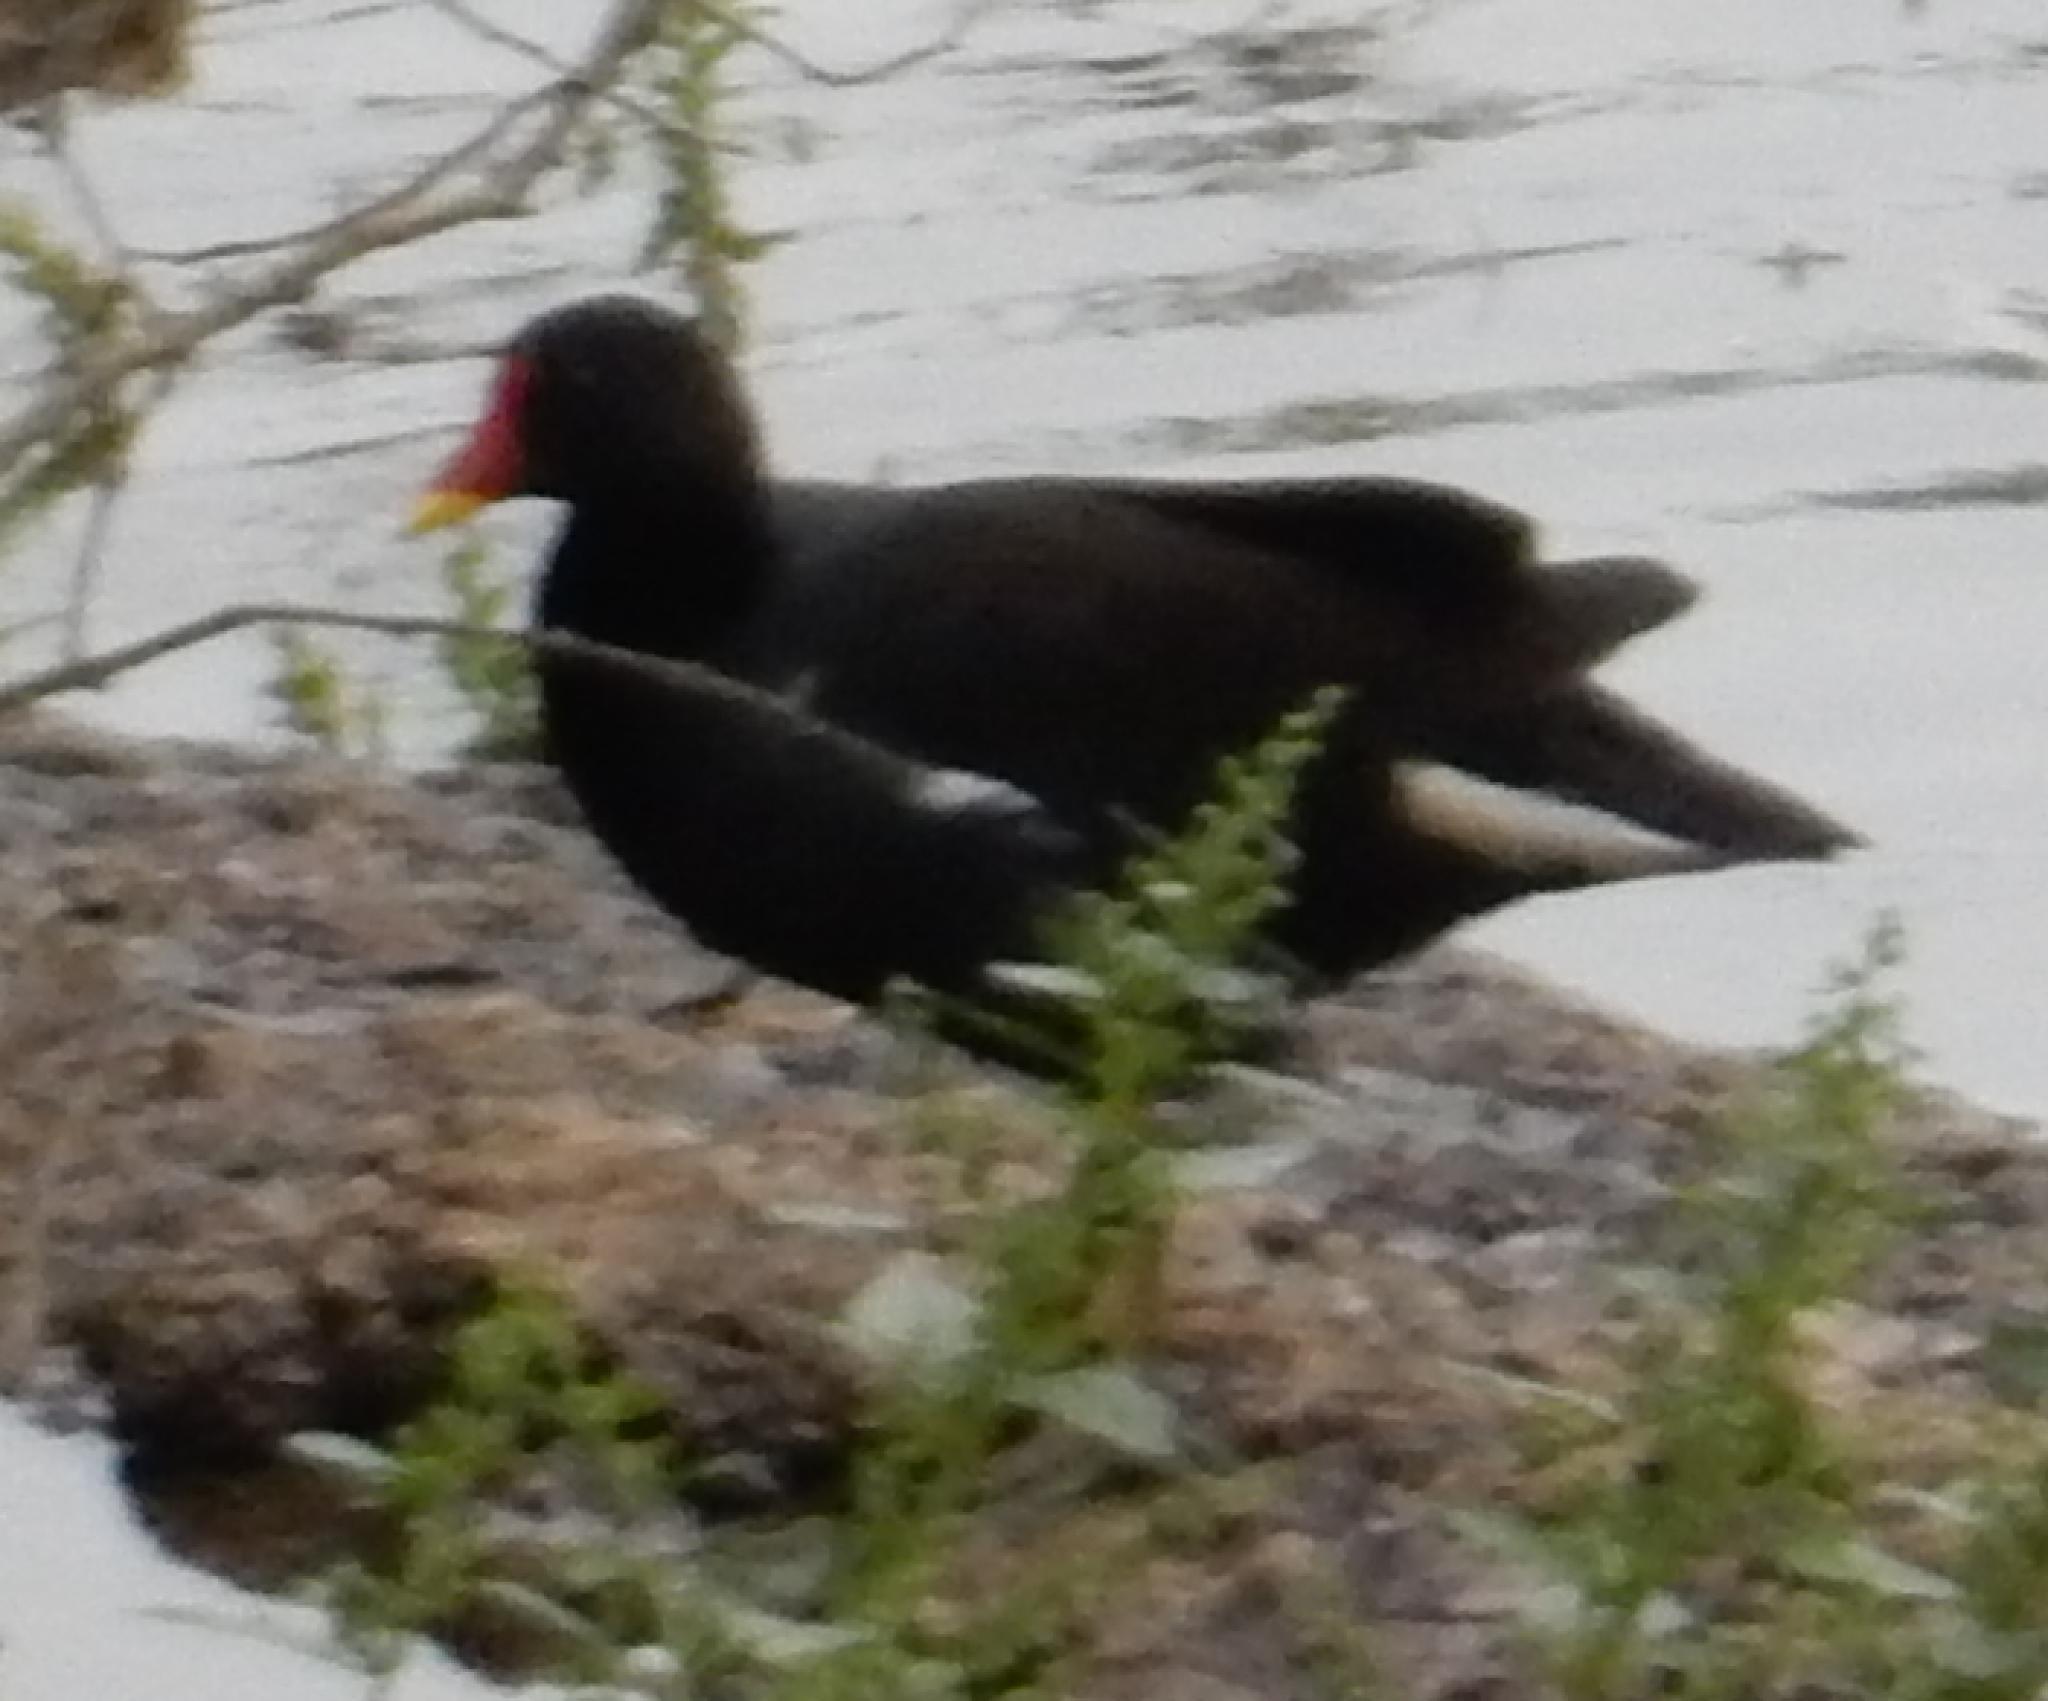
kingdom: Animalia
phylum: Chordata
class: Aves
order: Gruiformes
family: Rallidae
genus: Gallinula
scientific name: Gallinula chloropus
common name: Common moorhen
